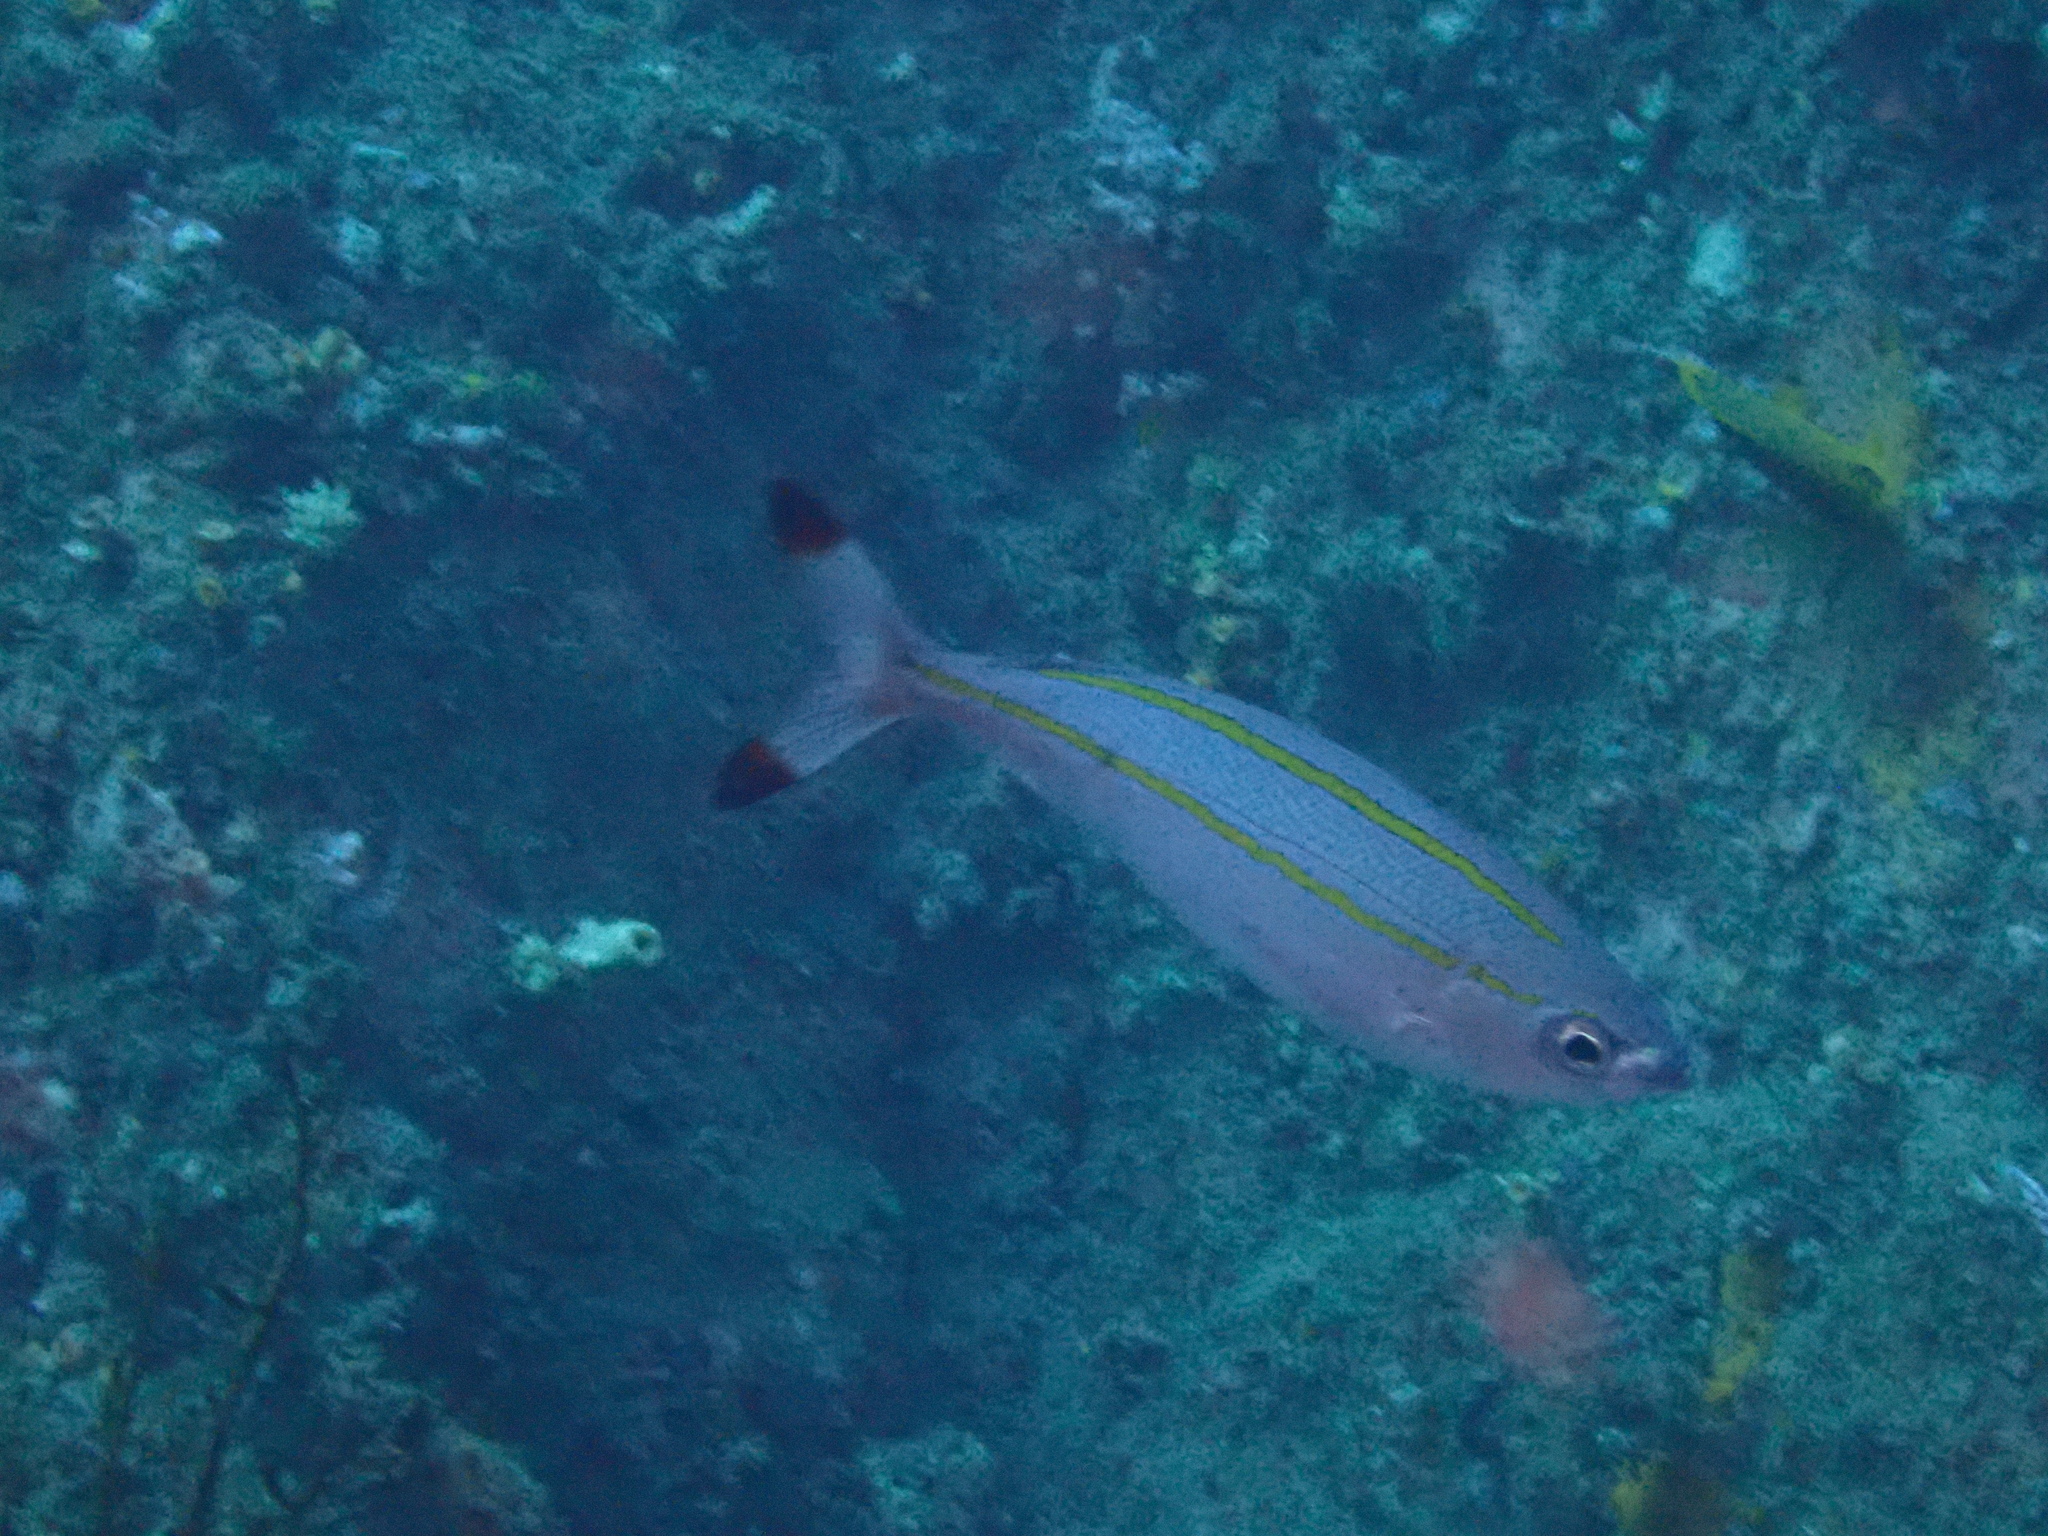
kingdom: Animalia
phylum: Chordata
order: Perciformes
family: Caesionidae
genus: Pterocaesio
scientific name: Pterocaesio digramma
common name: Double-lined fusilier
